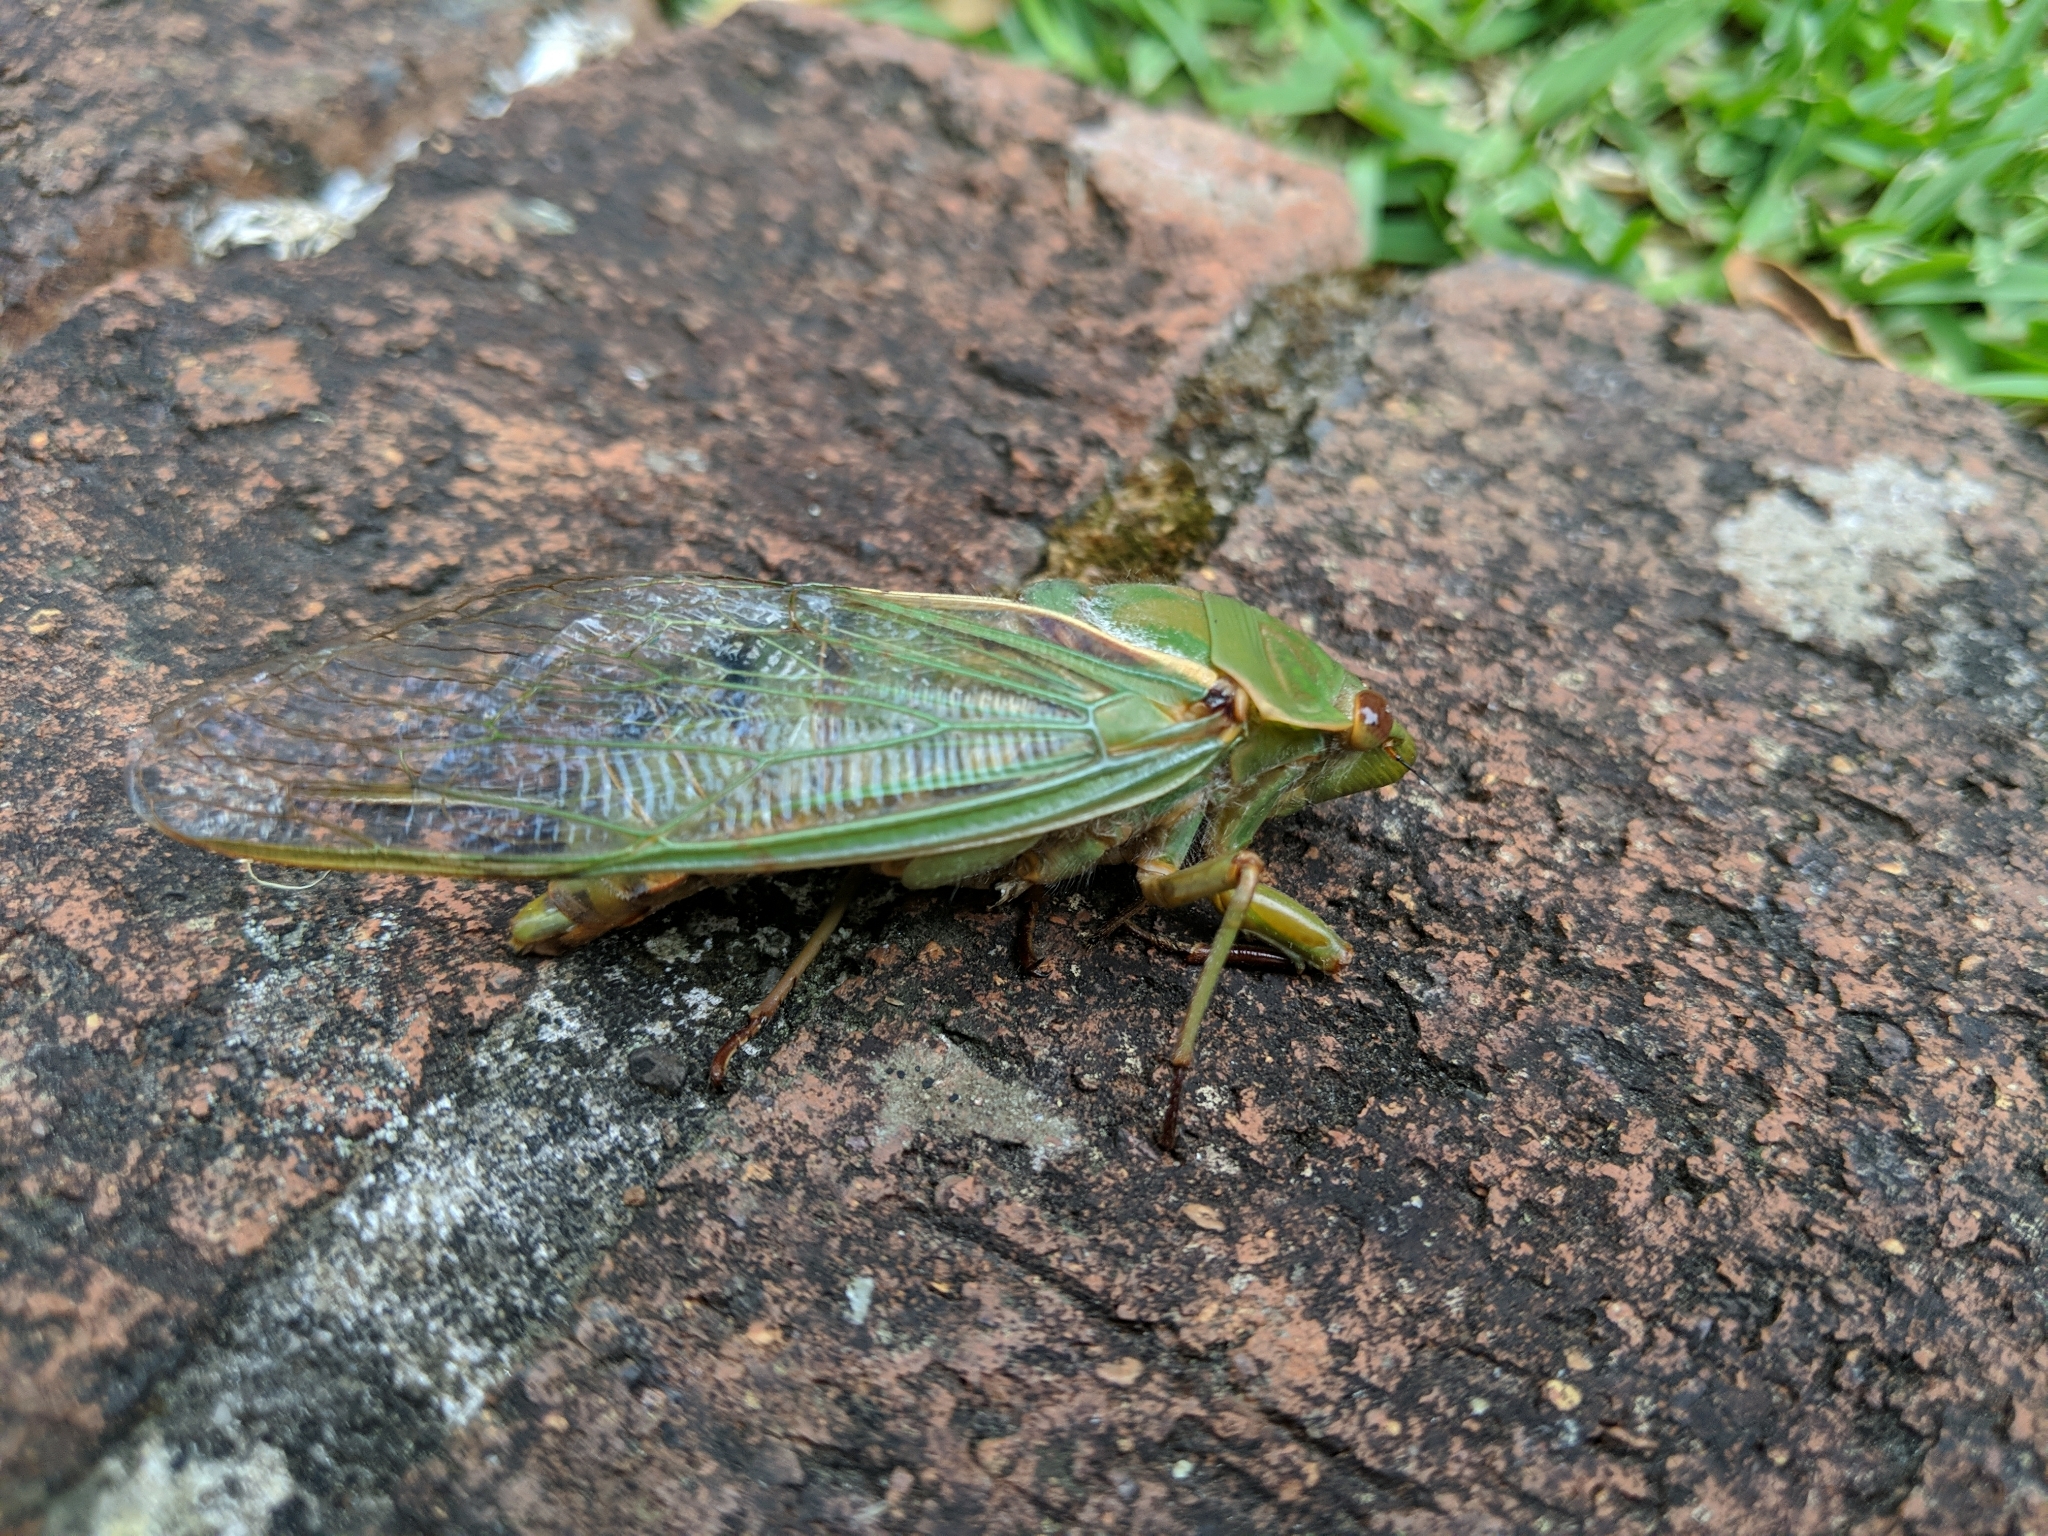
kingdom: Animalia
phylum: Arthropoda
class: Insecta
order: Hemiptera
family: Cicadidae
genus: Cyclochila
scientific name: Cyclochila australasiae
